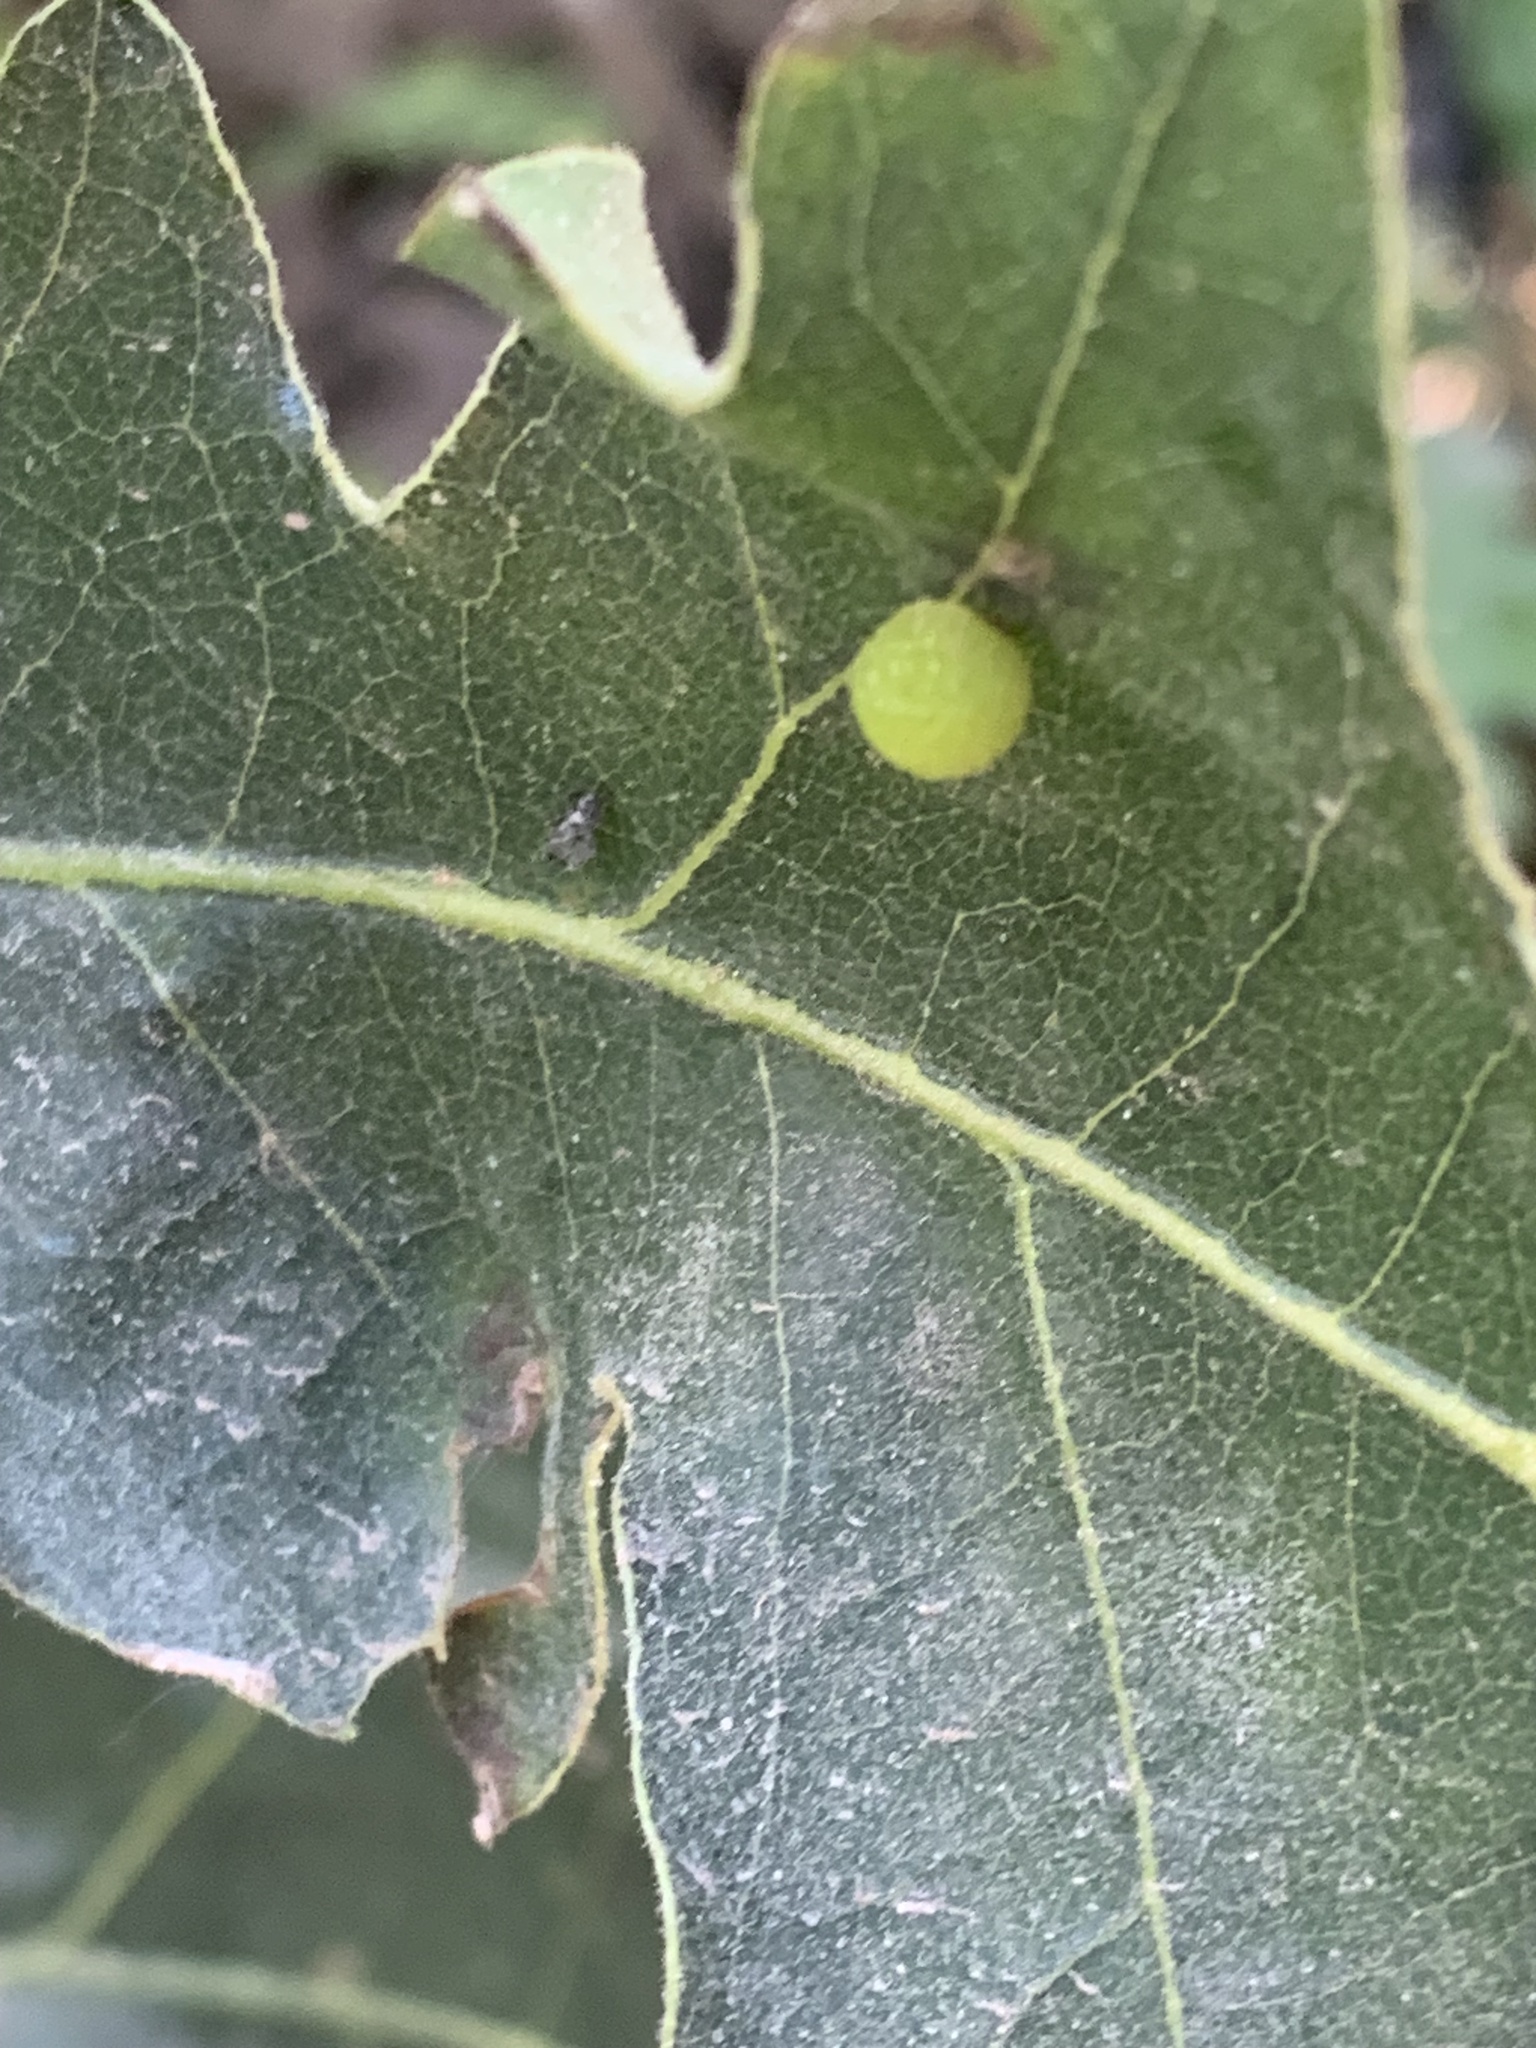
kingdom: Animalia
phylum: Arthropoda
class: Insecta
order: Hymenoptera
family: Cynipidae
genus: Acraspis
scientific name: Acraspis quercushirta
